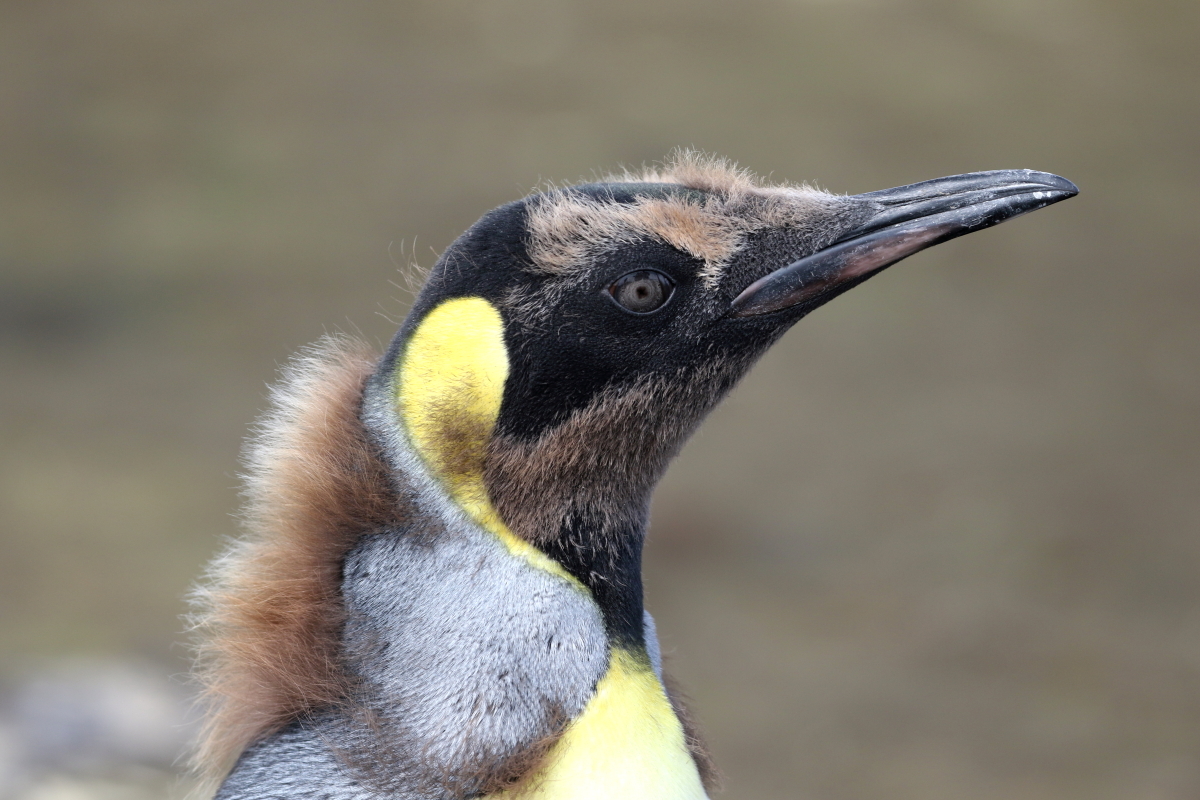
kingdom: Animalia
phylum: Chordata
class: Aves
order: Sphenisciformes
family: Spheniscidae
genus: Aptenodytes
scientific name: Aptenodytes patagonicus
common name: King penguin
